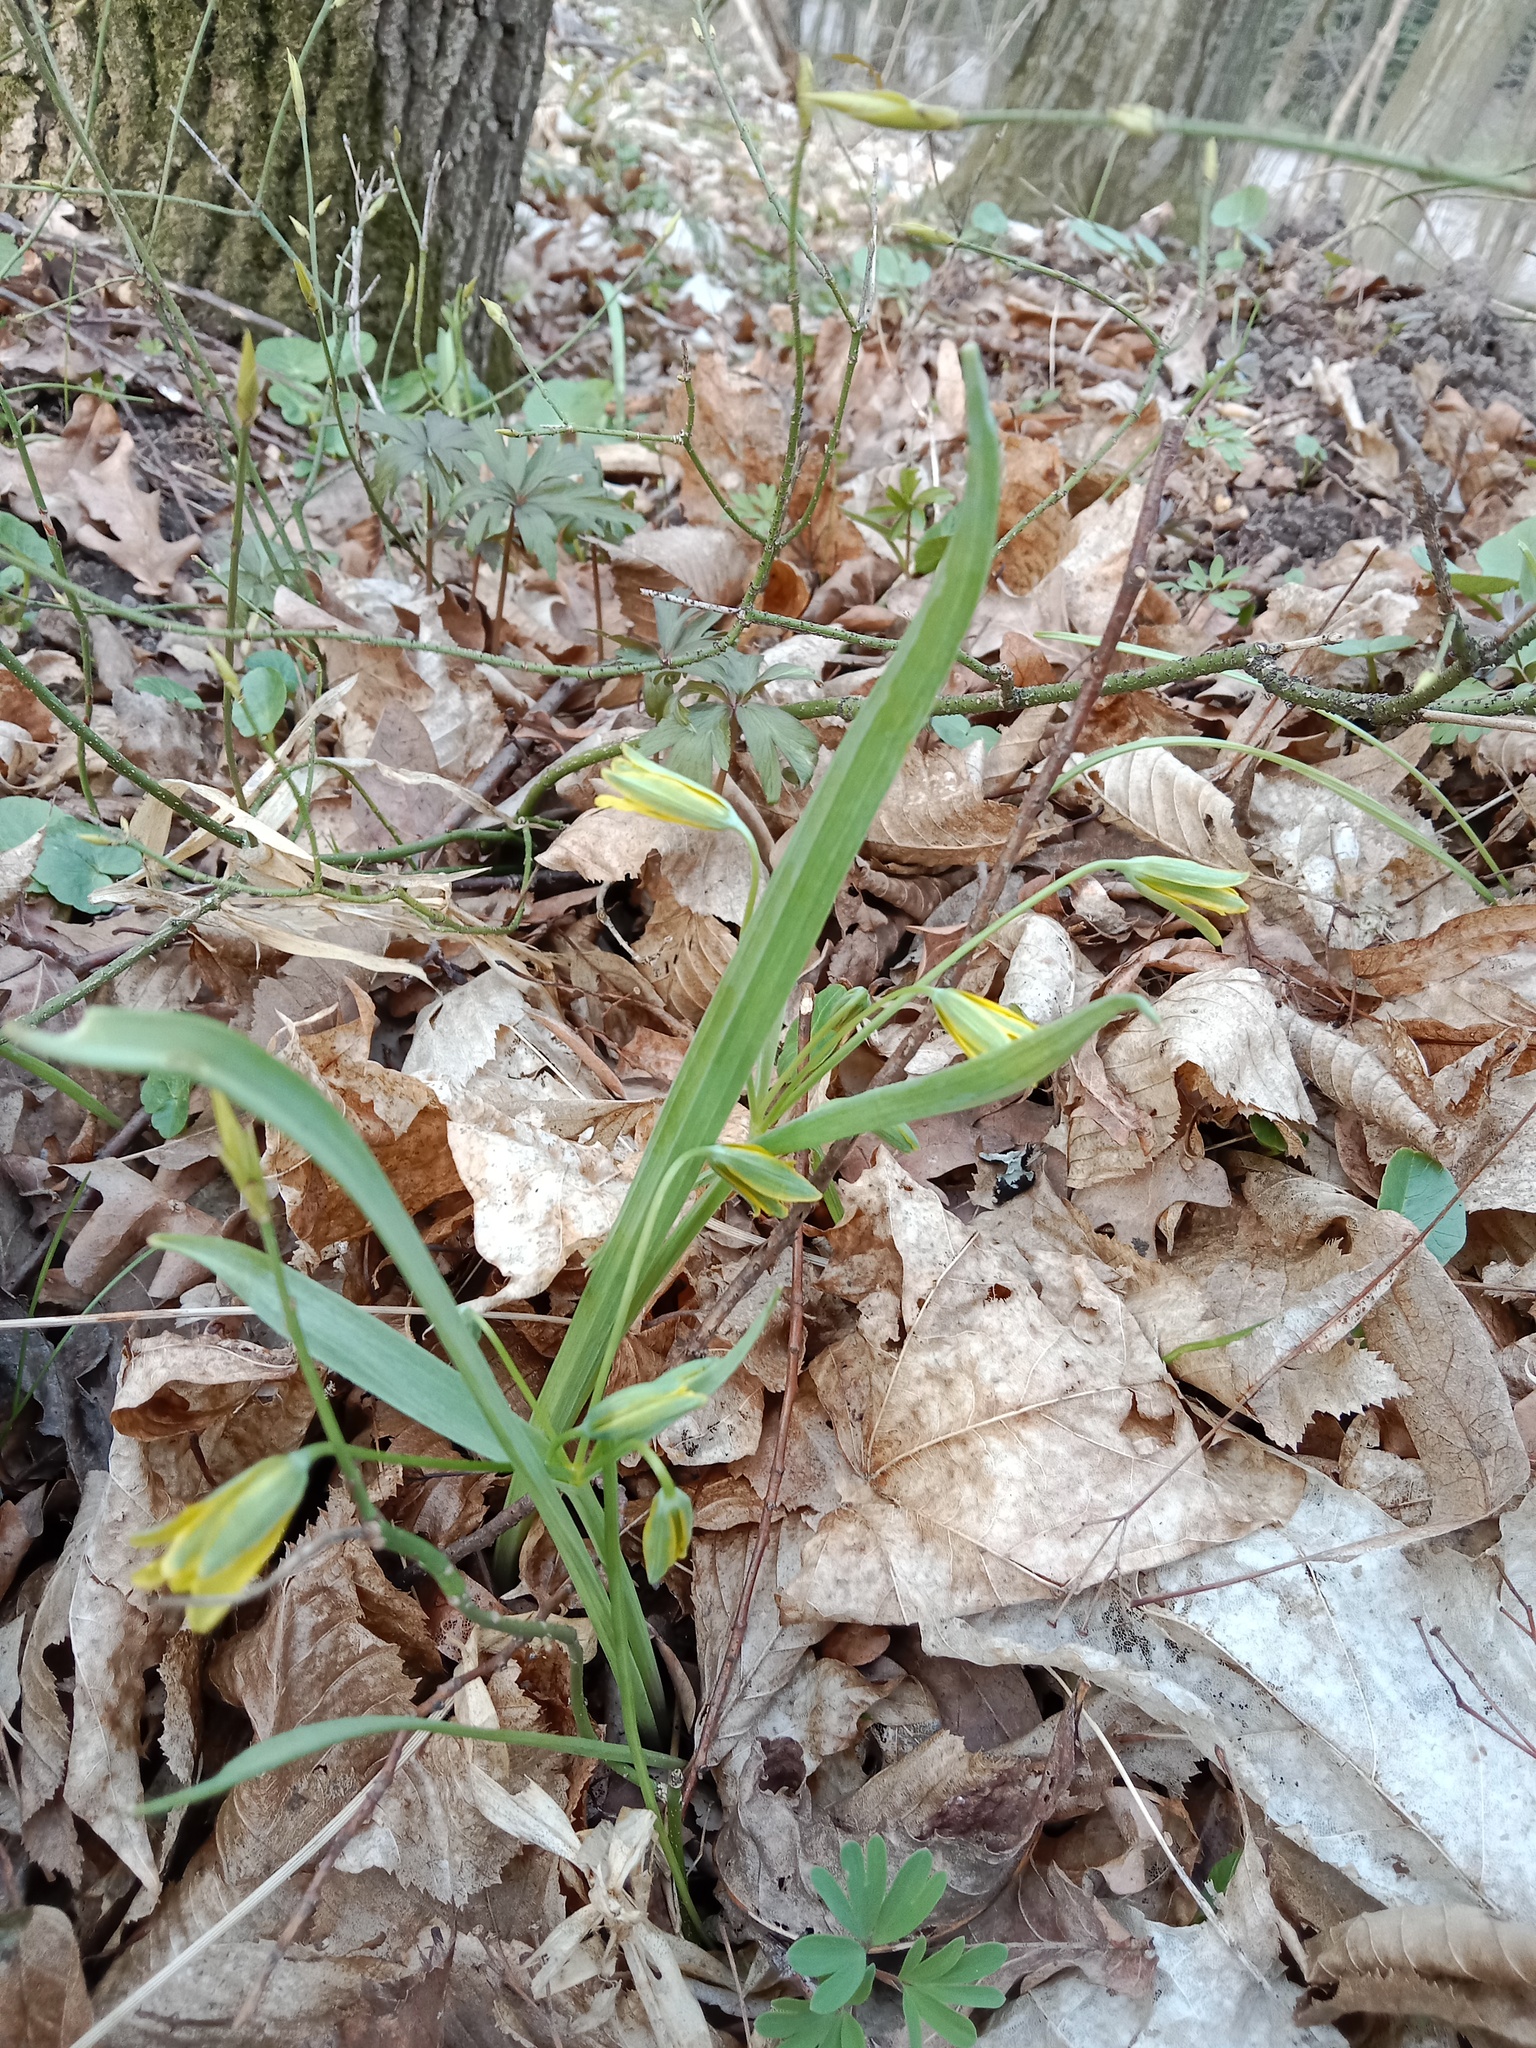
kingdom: Plantae
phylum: Tracheophyta
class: Liliopsida
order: Liliales
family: Liliaceae
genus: Gagea
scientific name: Gagea lutea
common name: Yellow star-of-bethlehem
